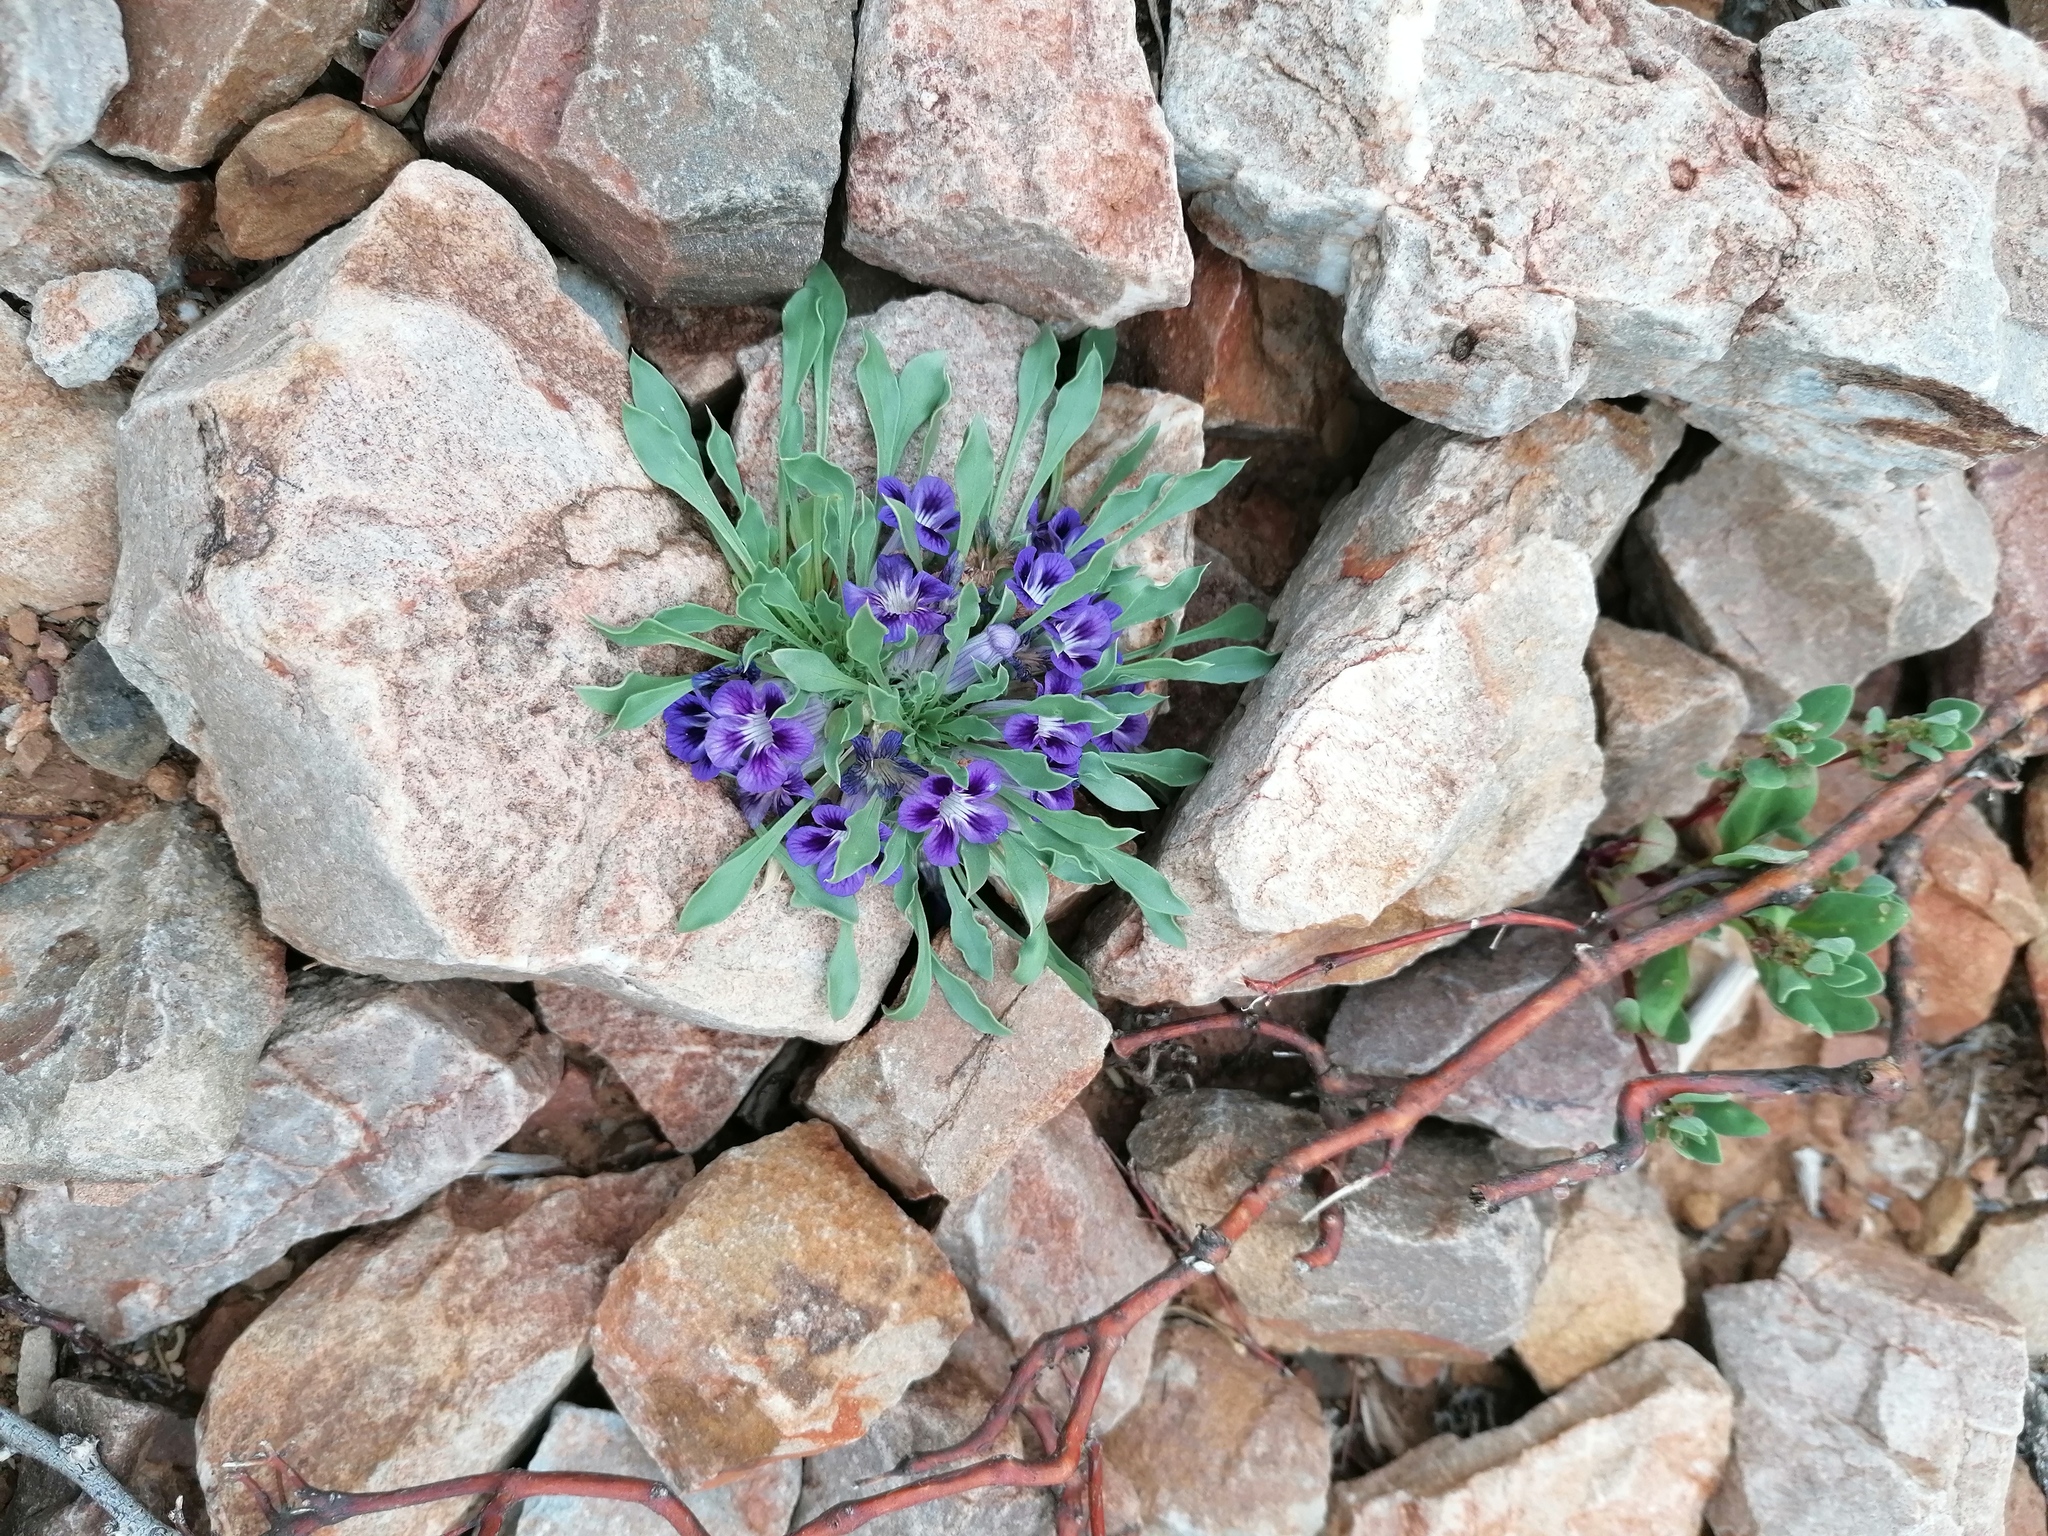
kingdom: Plantae
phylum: Tracheophyta
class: Magnoliopsida
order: Lamiales
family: Scrophulariaceae
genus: Aptosimum
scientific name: Aptosimum indivisum
